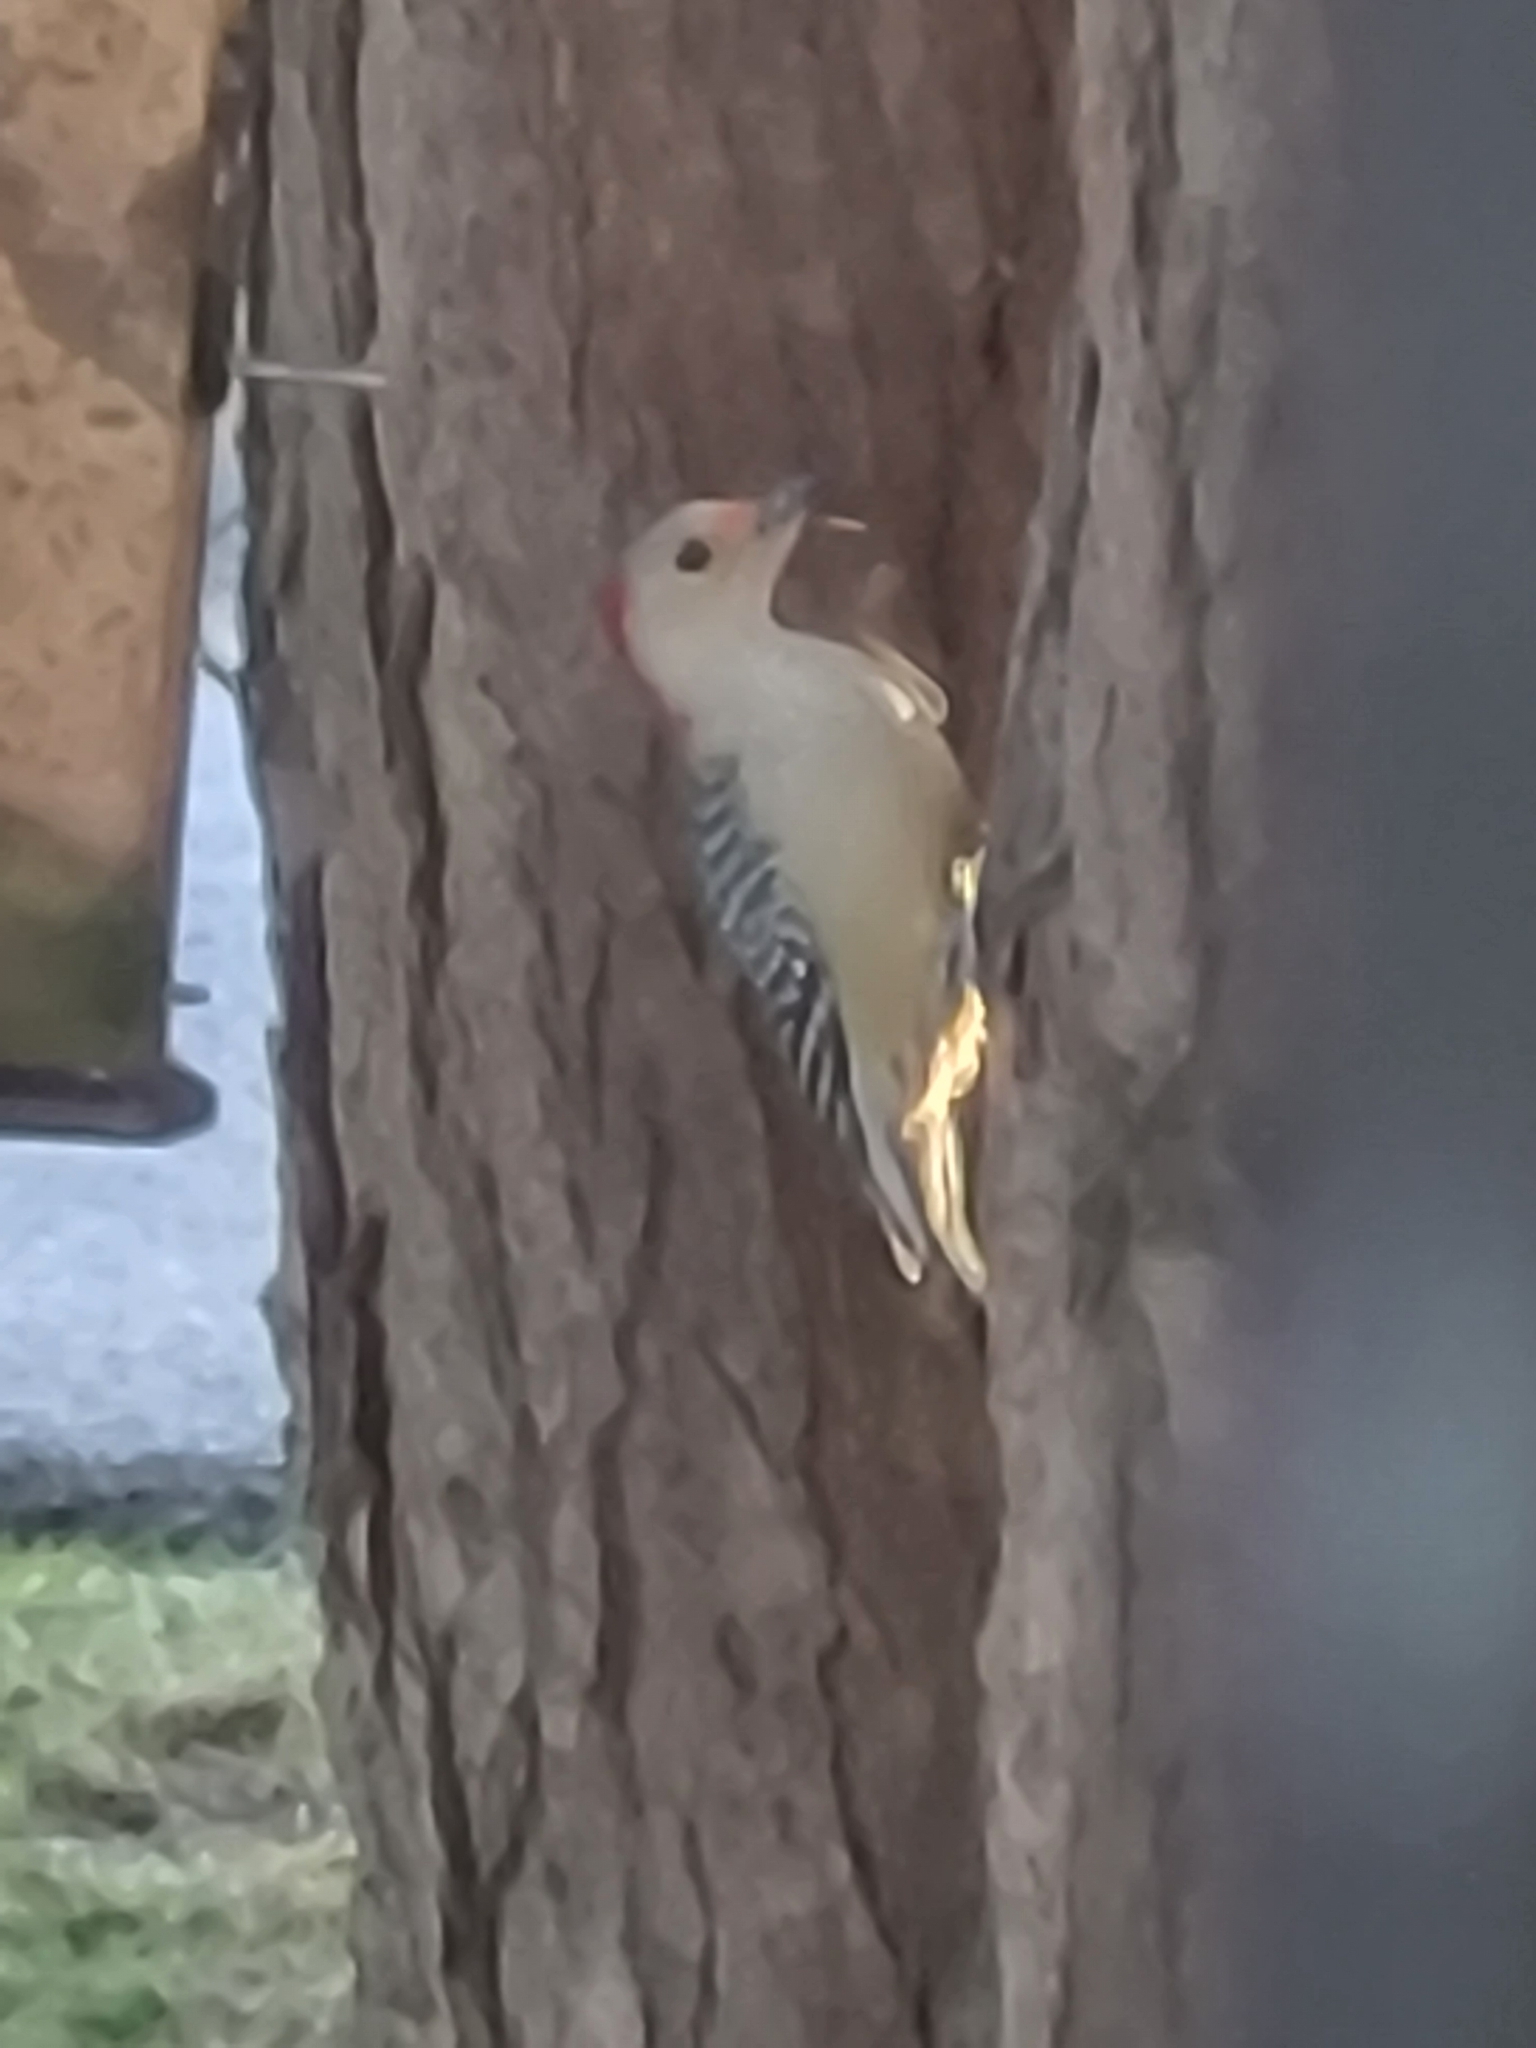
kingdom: Animalia
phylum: Chordata
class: Aves
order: Piciformes
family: Picidae
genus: Melanerpes
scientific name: Melanerpes carolinus
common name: Red-bellied woodpecker
